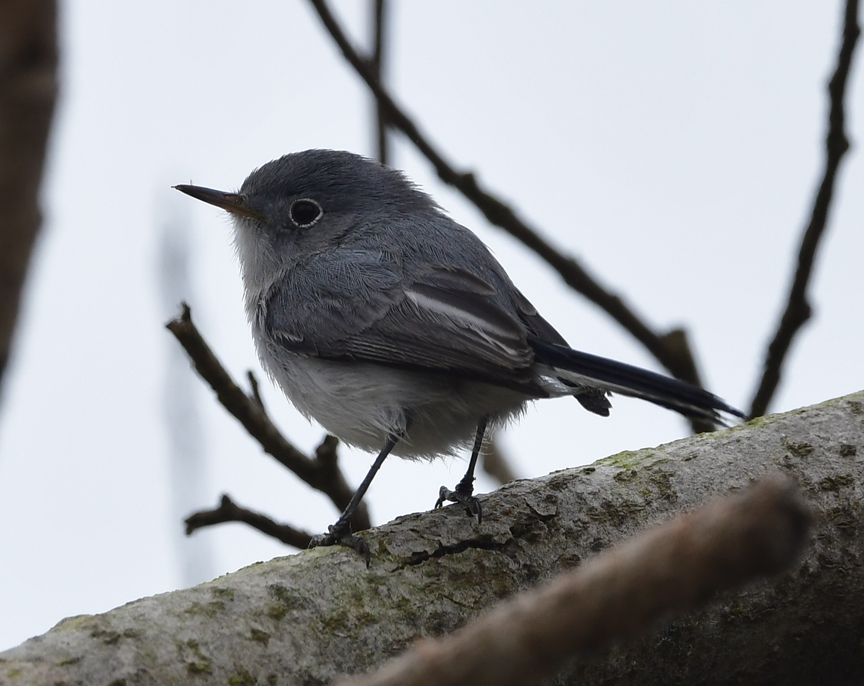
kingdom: Animalia
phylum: Chordata
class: Aves
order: Passeriformes
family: Polioptilidae
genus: Polioptila
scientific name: Polioptila caerulea
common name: Blue-gray gnatcatcher
